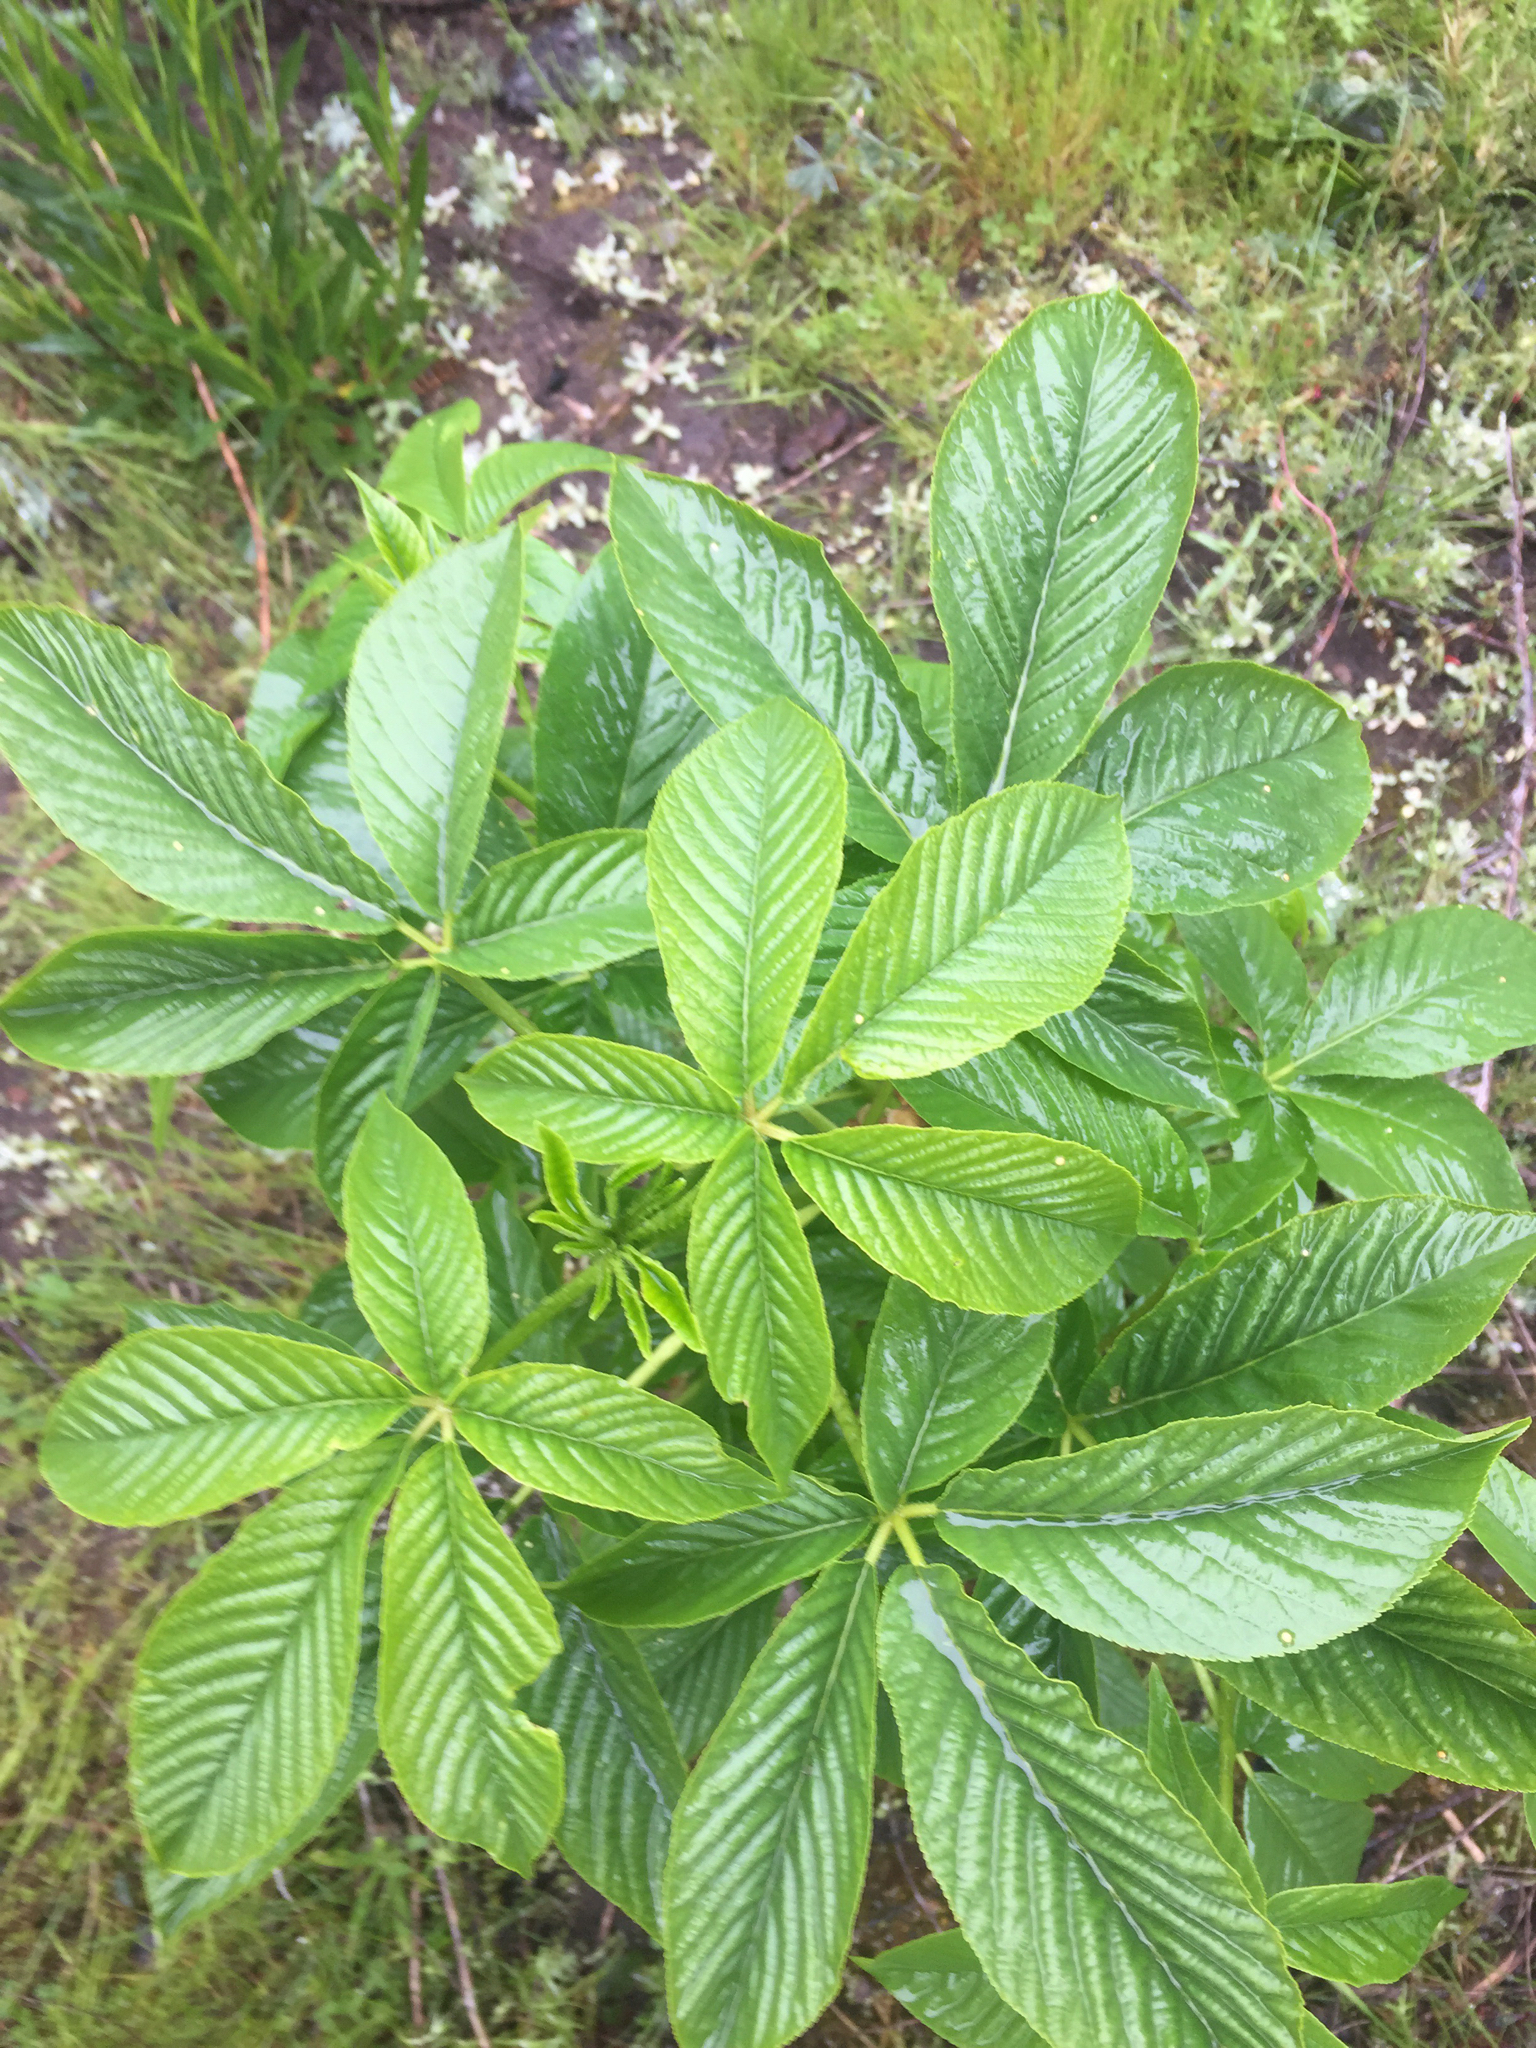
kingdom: Plantae
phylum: Tracheophyta
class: Magnoliopsida
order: Sapindales
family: Sapindaceae
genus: Aesculus
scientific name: Aesculus californica
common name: California buckeye
